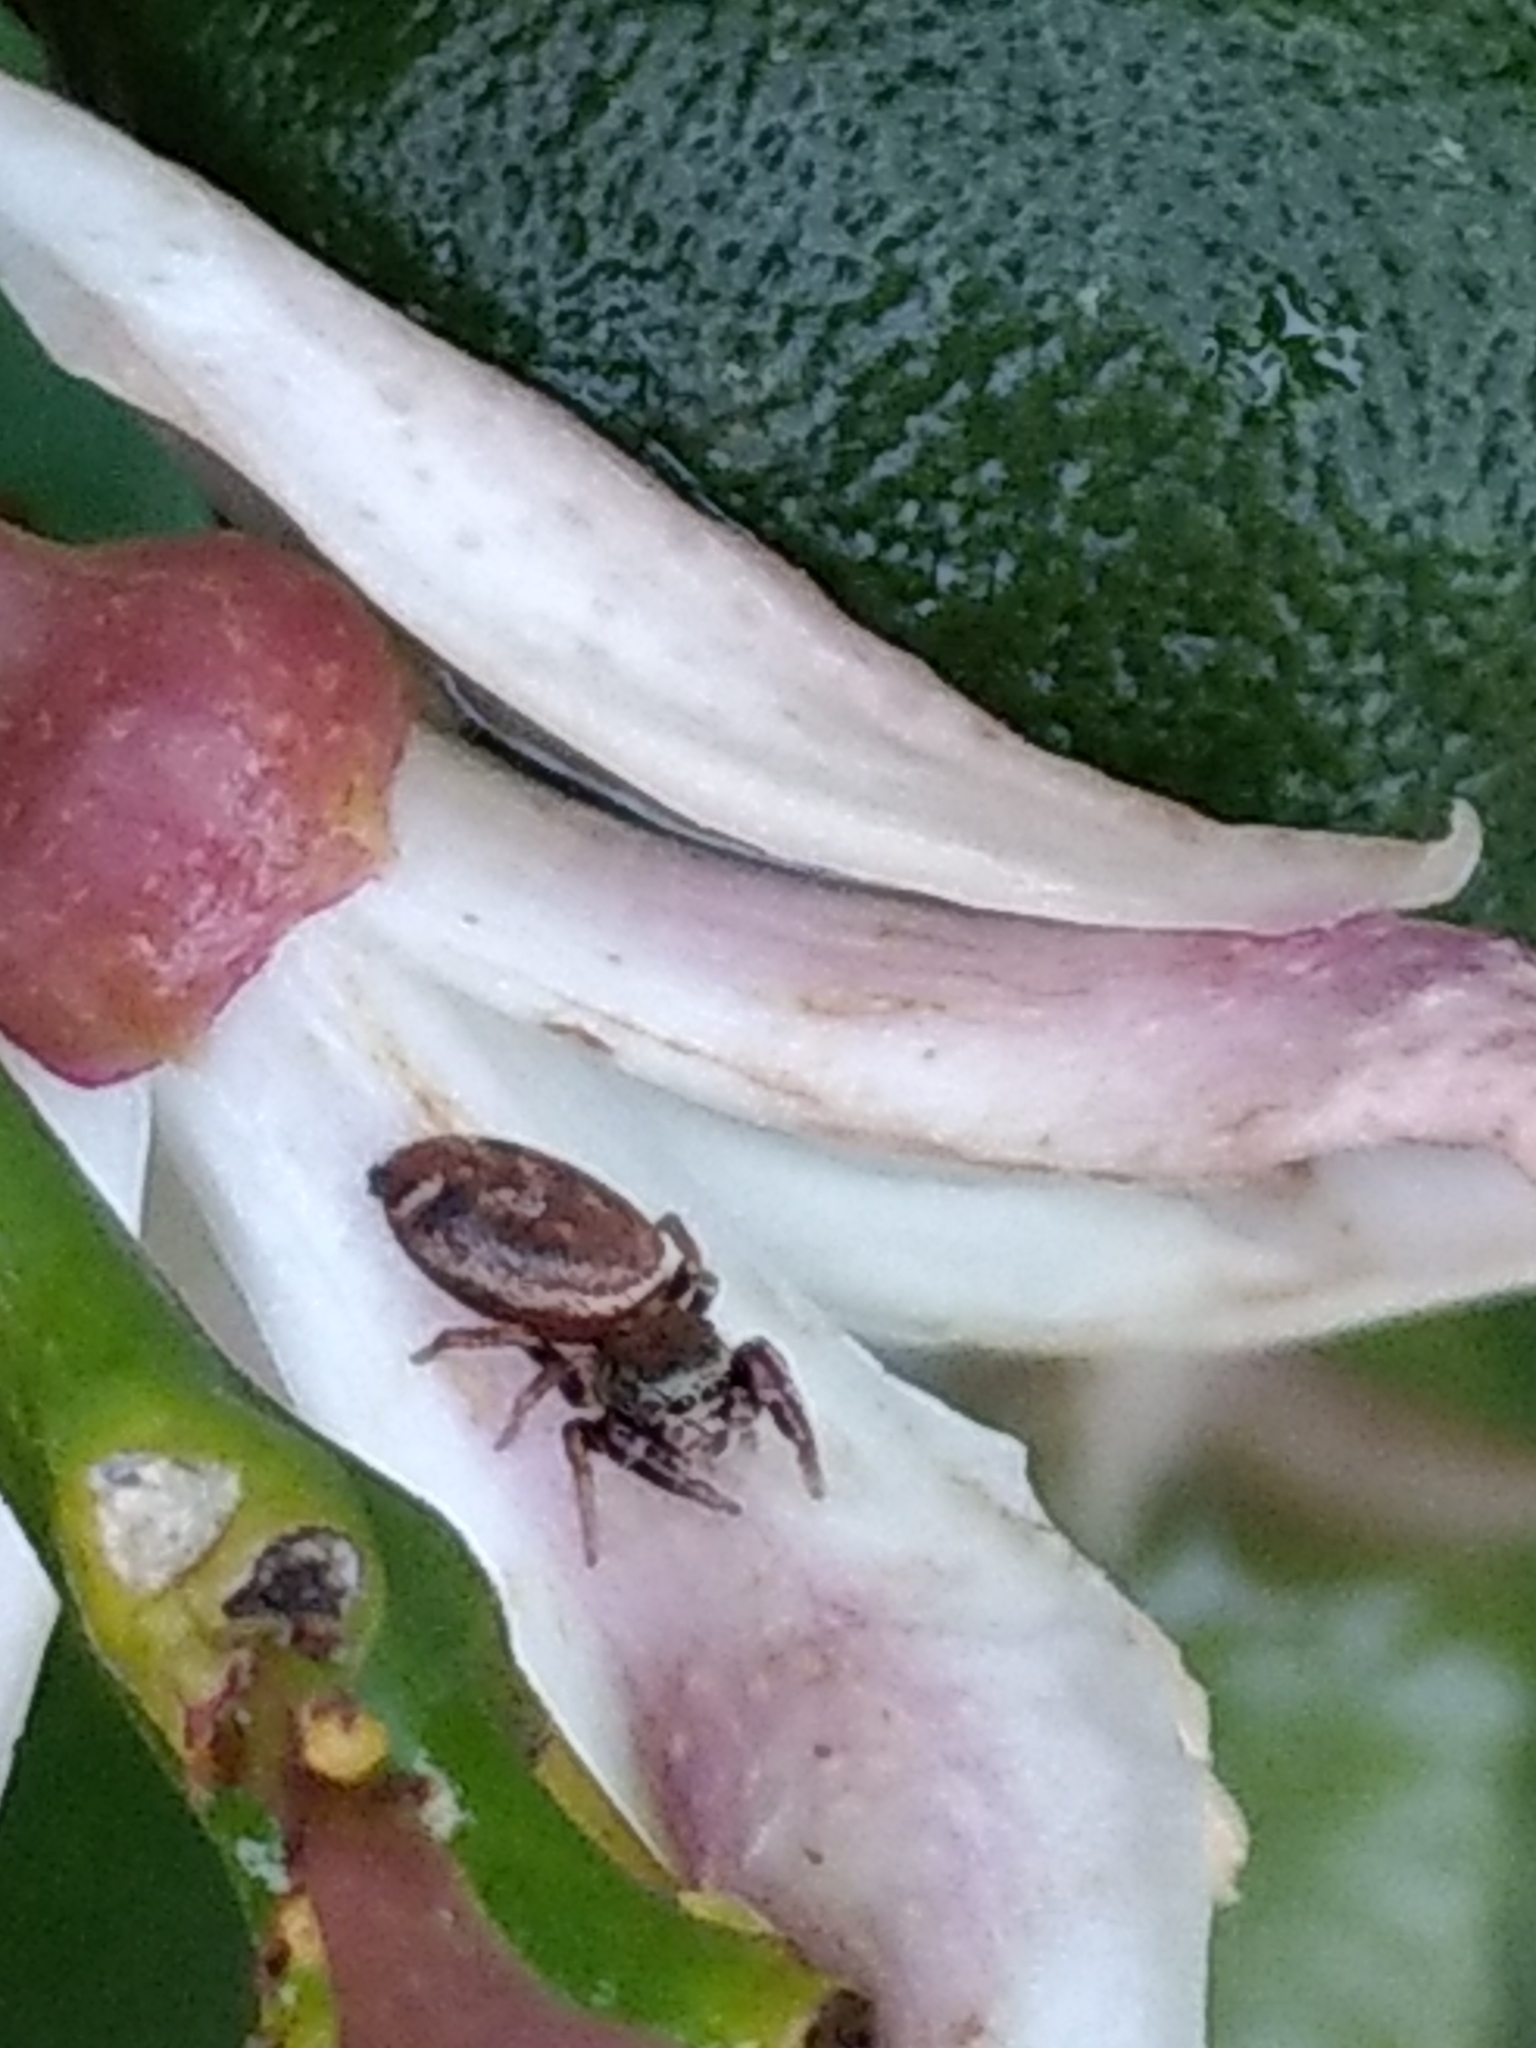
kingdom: Animalia
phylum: Arthropoda
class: Arachnida
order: Araneae
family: Salticidae
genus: Sassacus
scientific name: Sassacus vitis
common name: Jumping spiders
